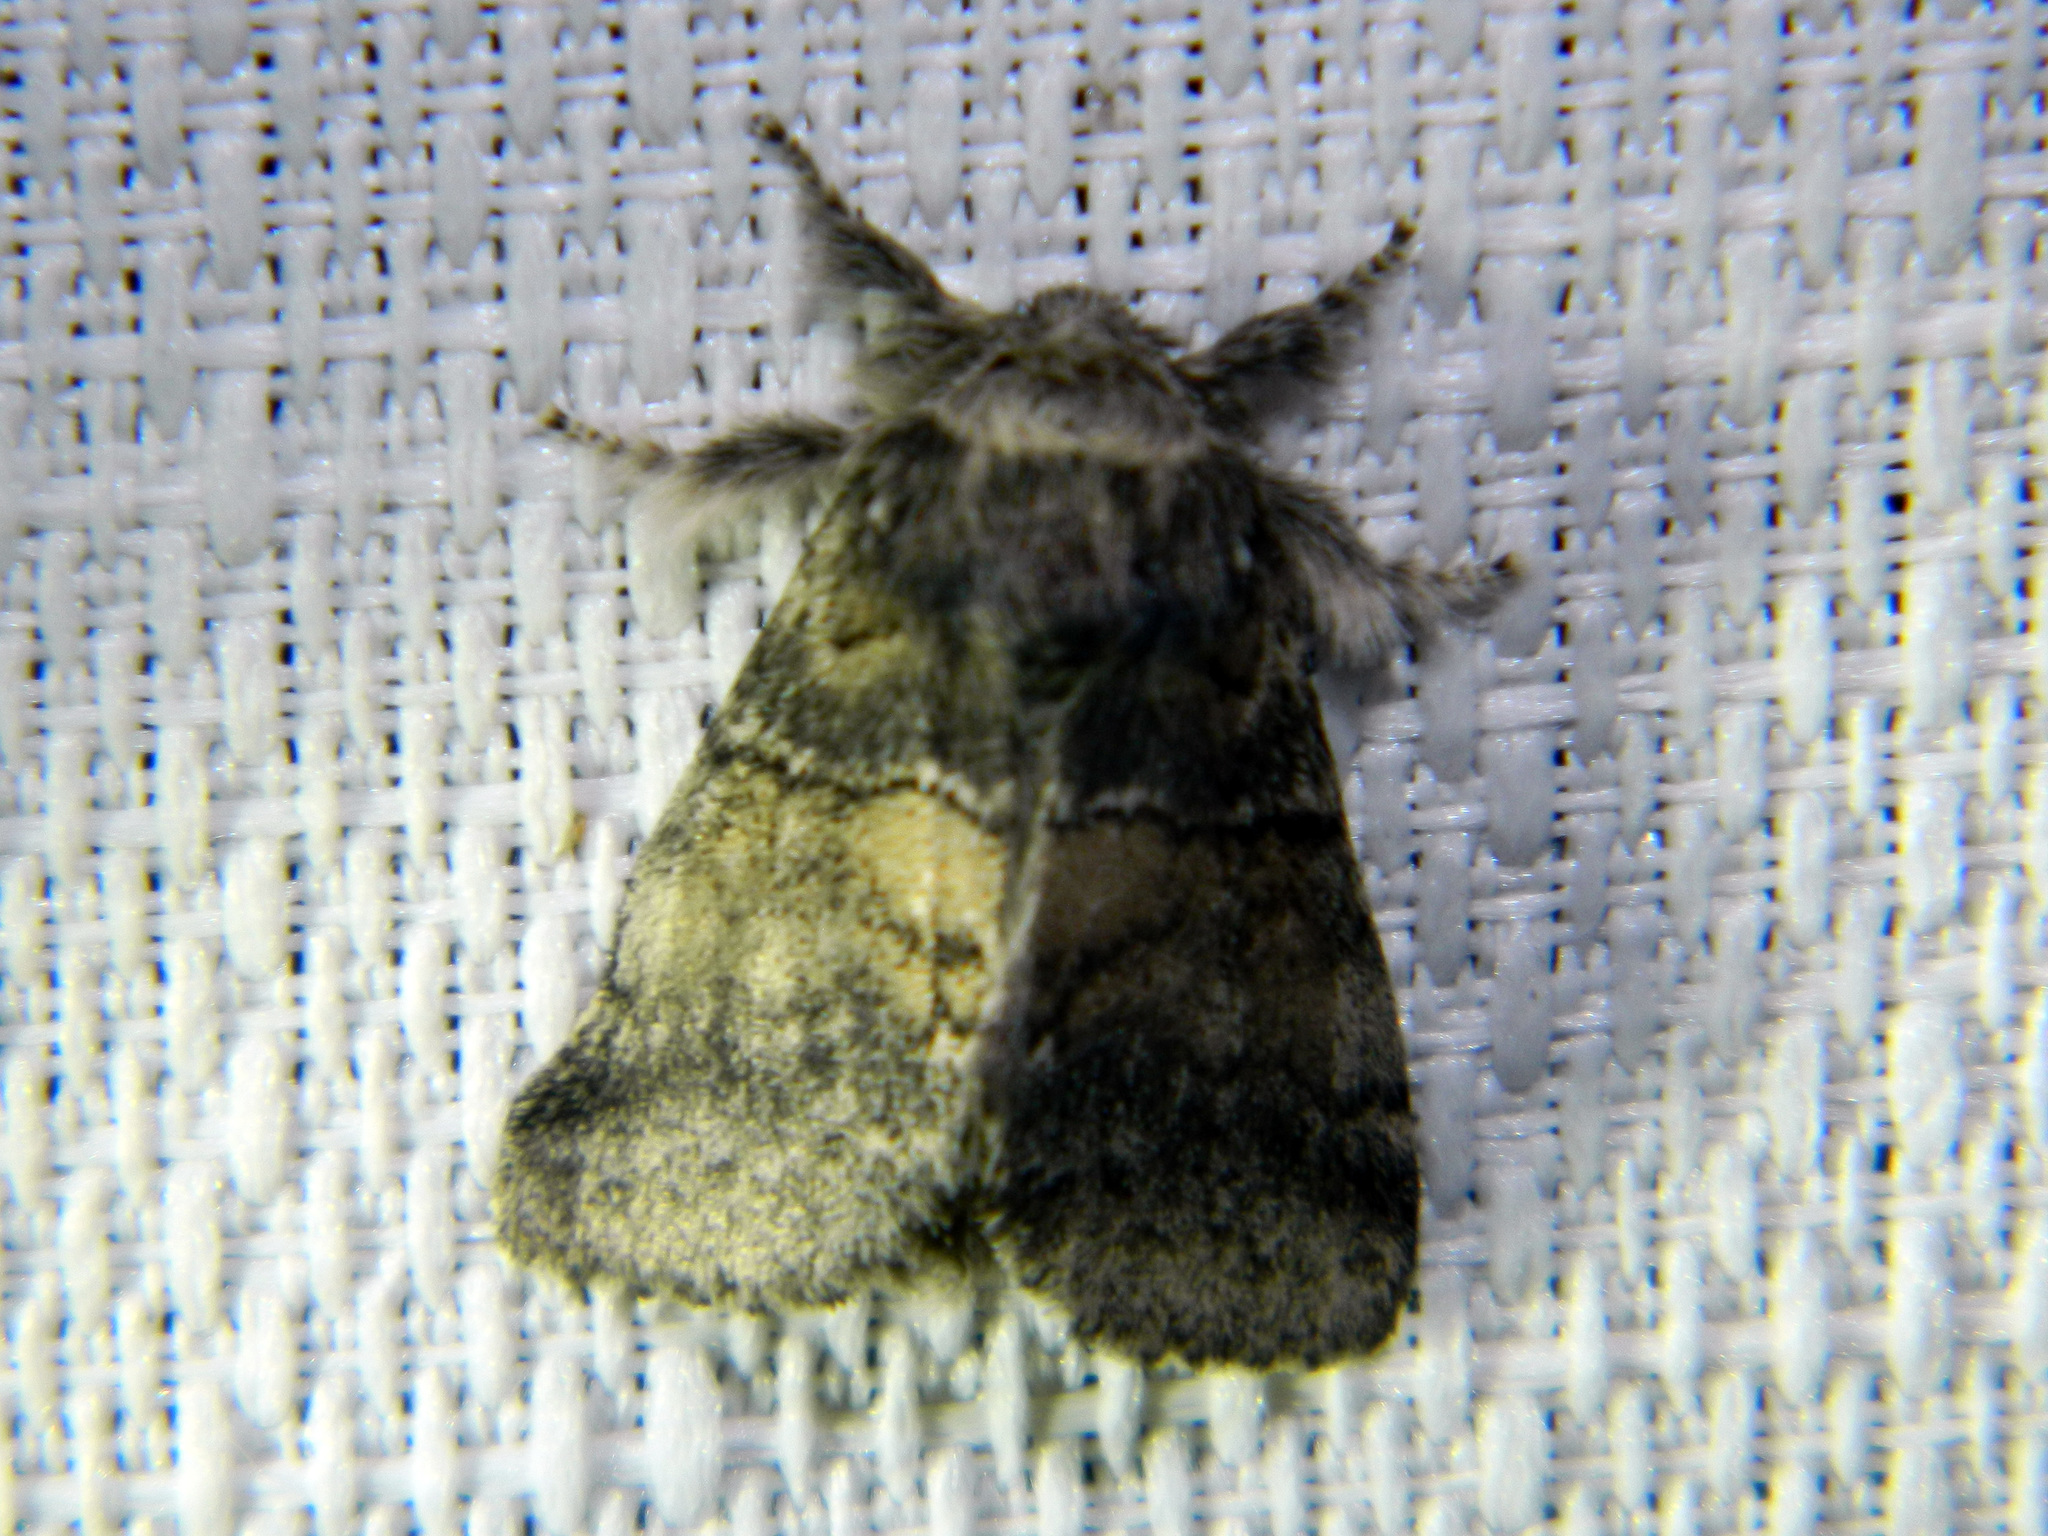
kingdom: Animalia
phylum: Arthropoda
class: Insecta
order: Lepidoptera
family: Notodontidae
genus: Gluphisia
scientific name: Gluphisia septentrionis
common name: Common gluphisia
